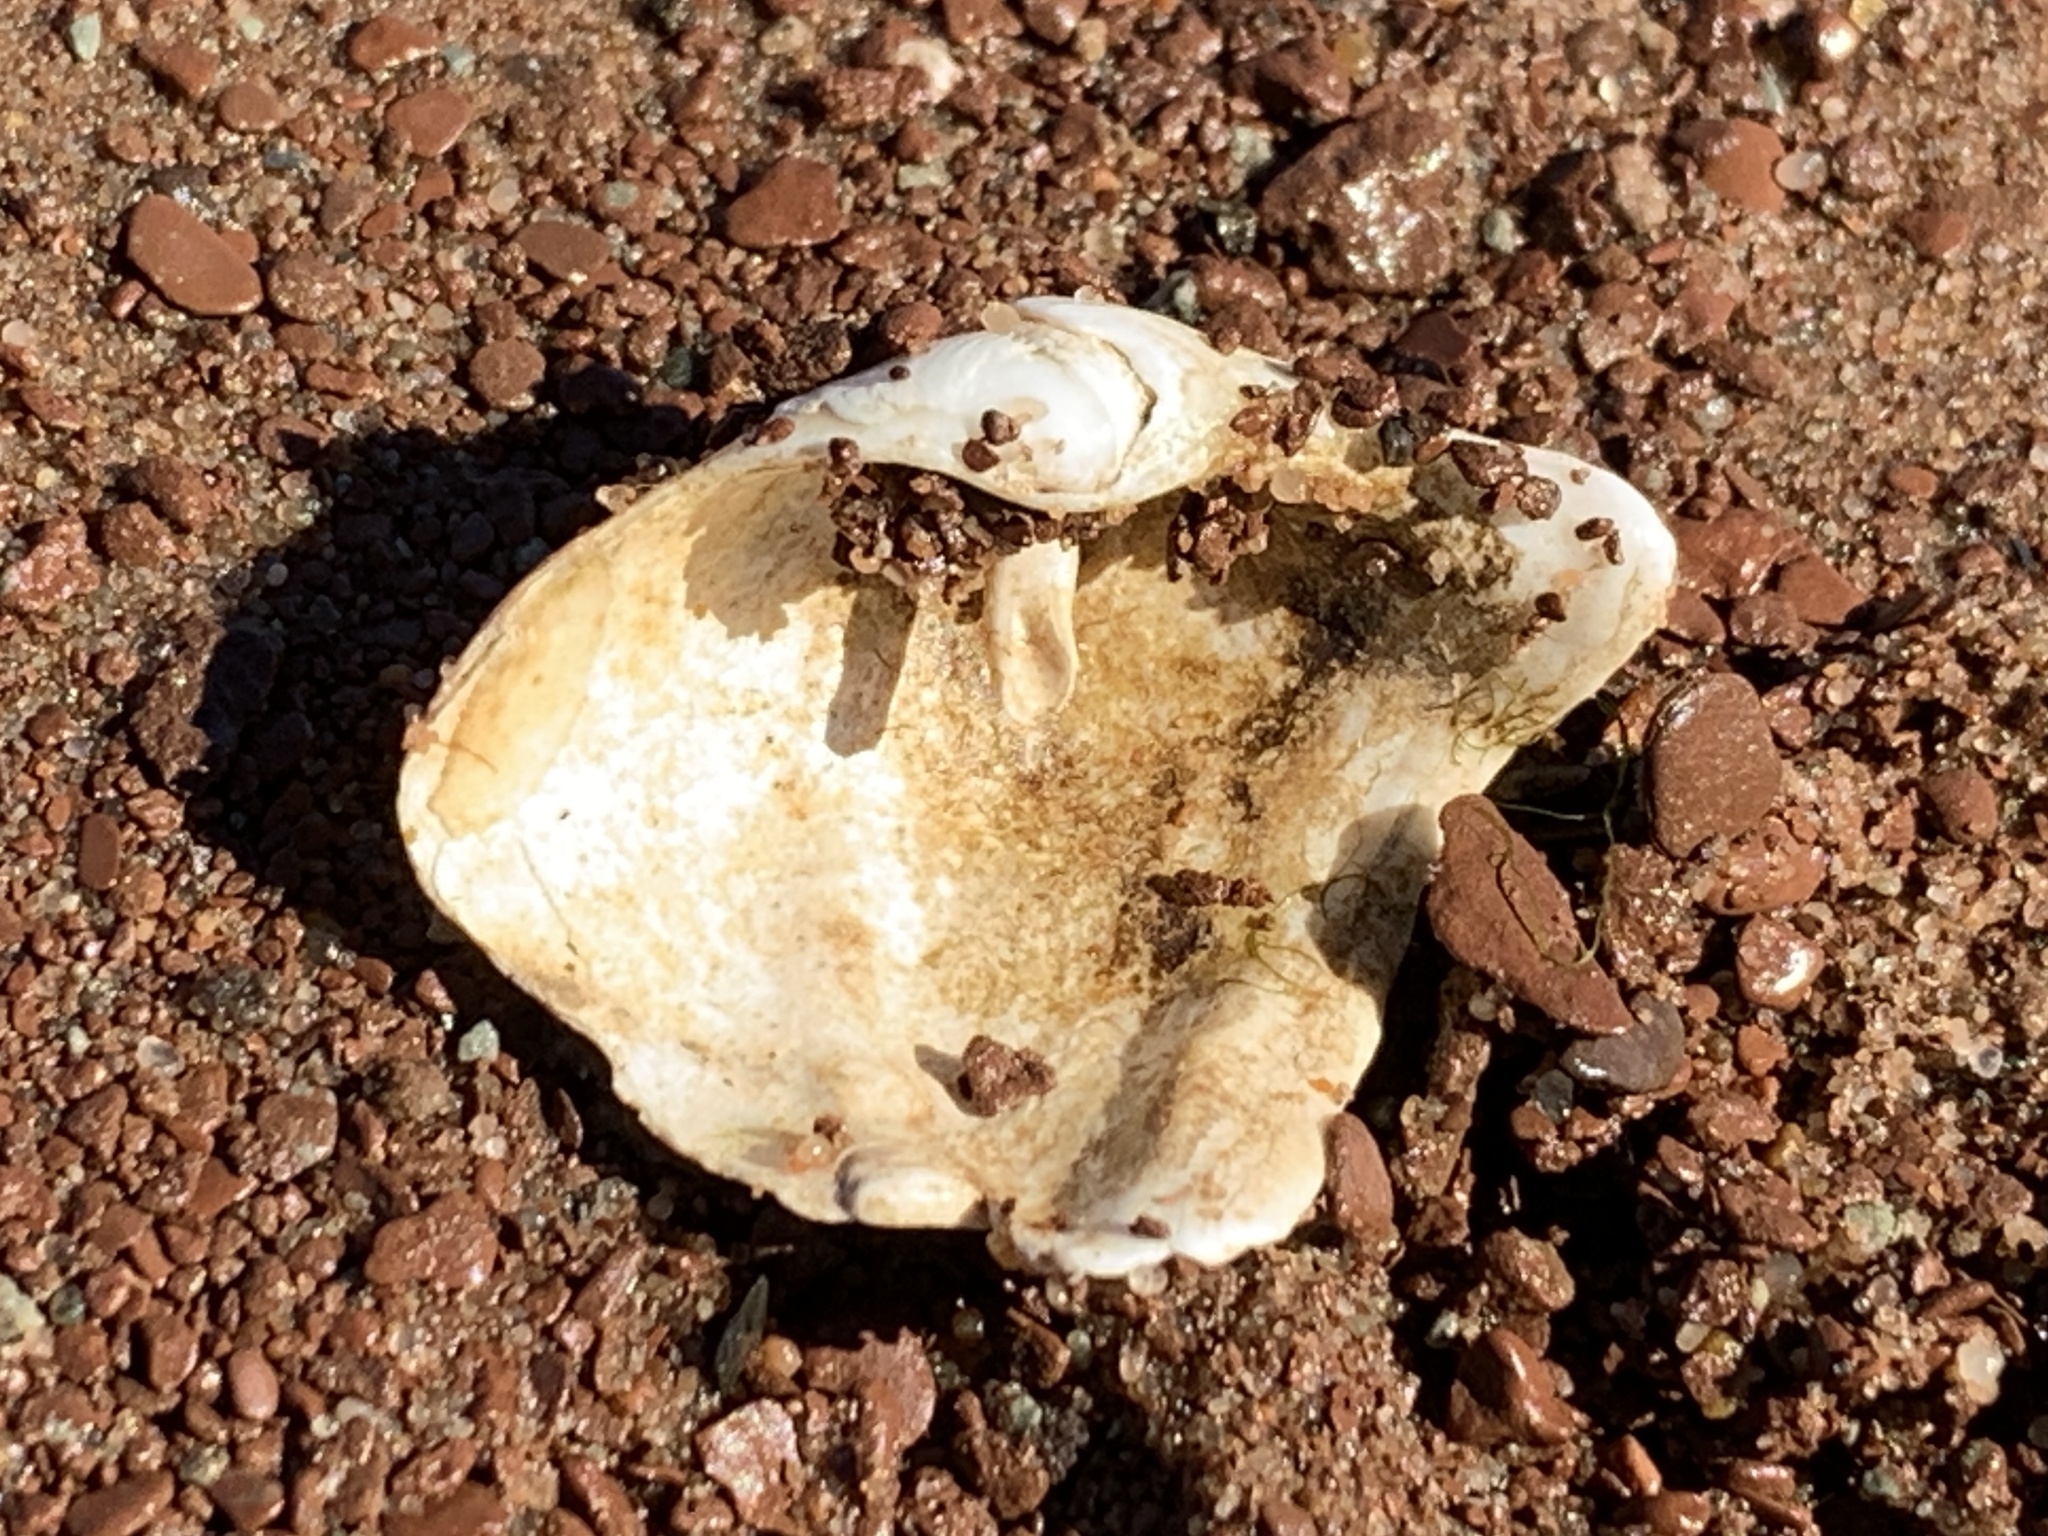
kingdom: Animalia
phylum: Mollusca
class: Bivalvia
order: Myida
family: Pholadidae
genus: Zirfaea
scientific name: Zirfaea crispata
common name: Oval piddock
